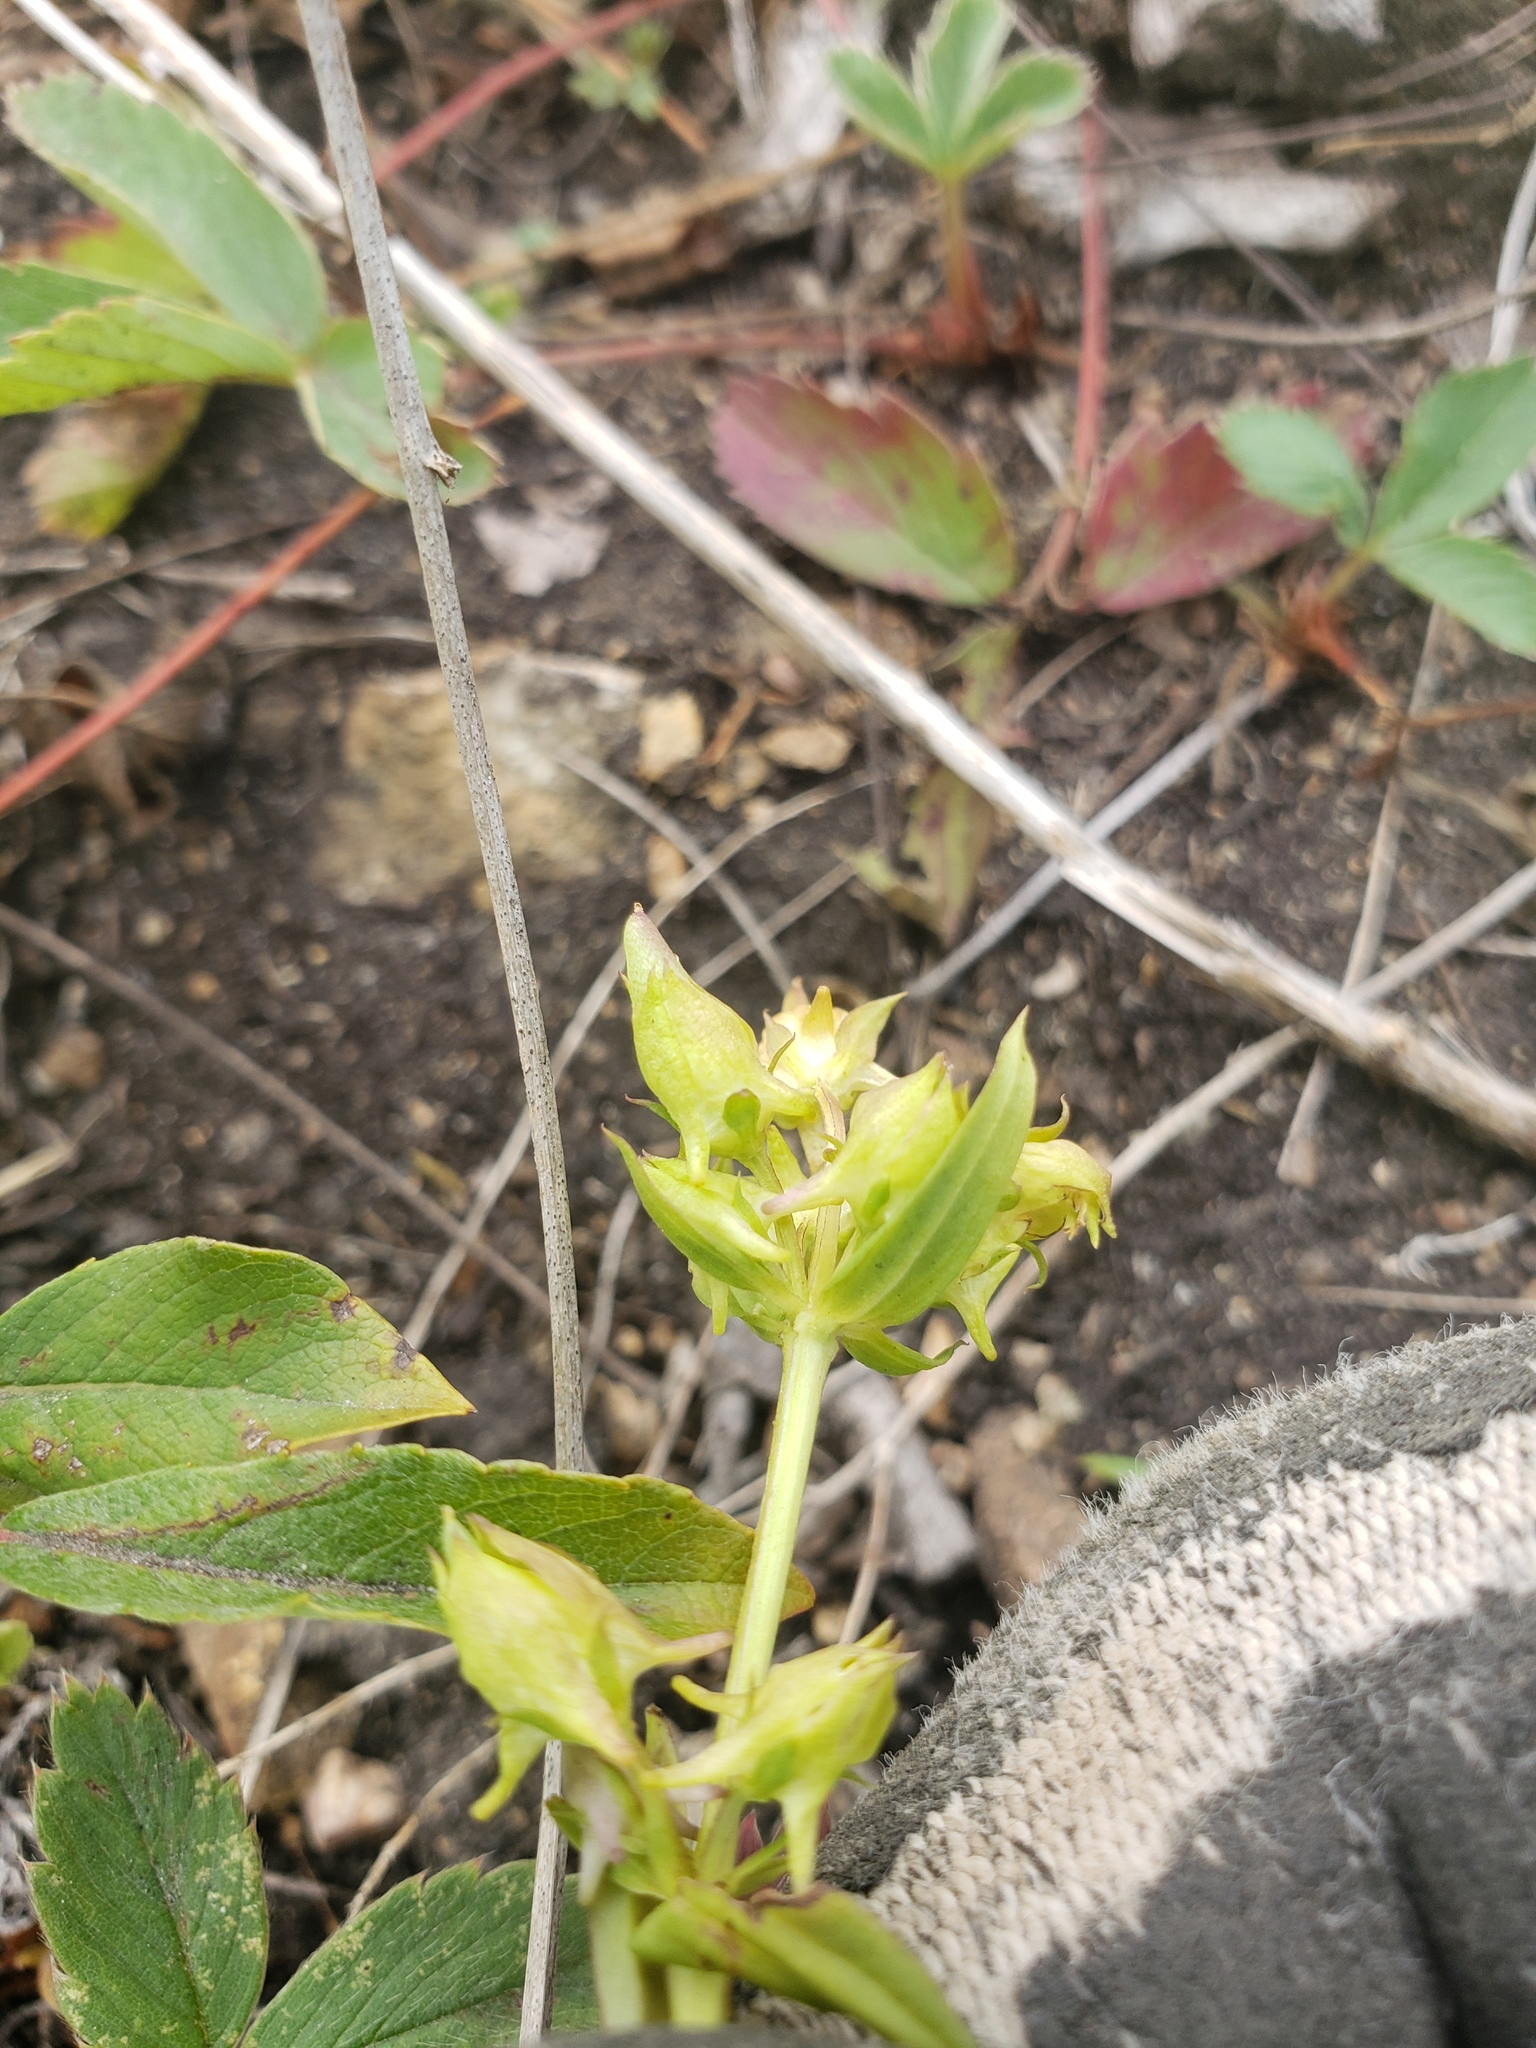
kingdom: Plantae
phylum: Tracheophyta
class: Magnoliopsida
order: Gentianales
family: Gentianaceae
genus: Halenia
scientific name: Halenia deflexa
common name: American spurred gentian
